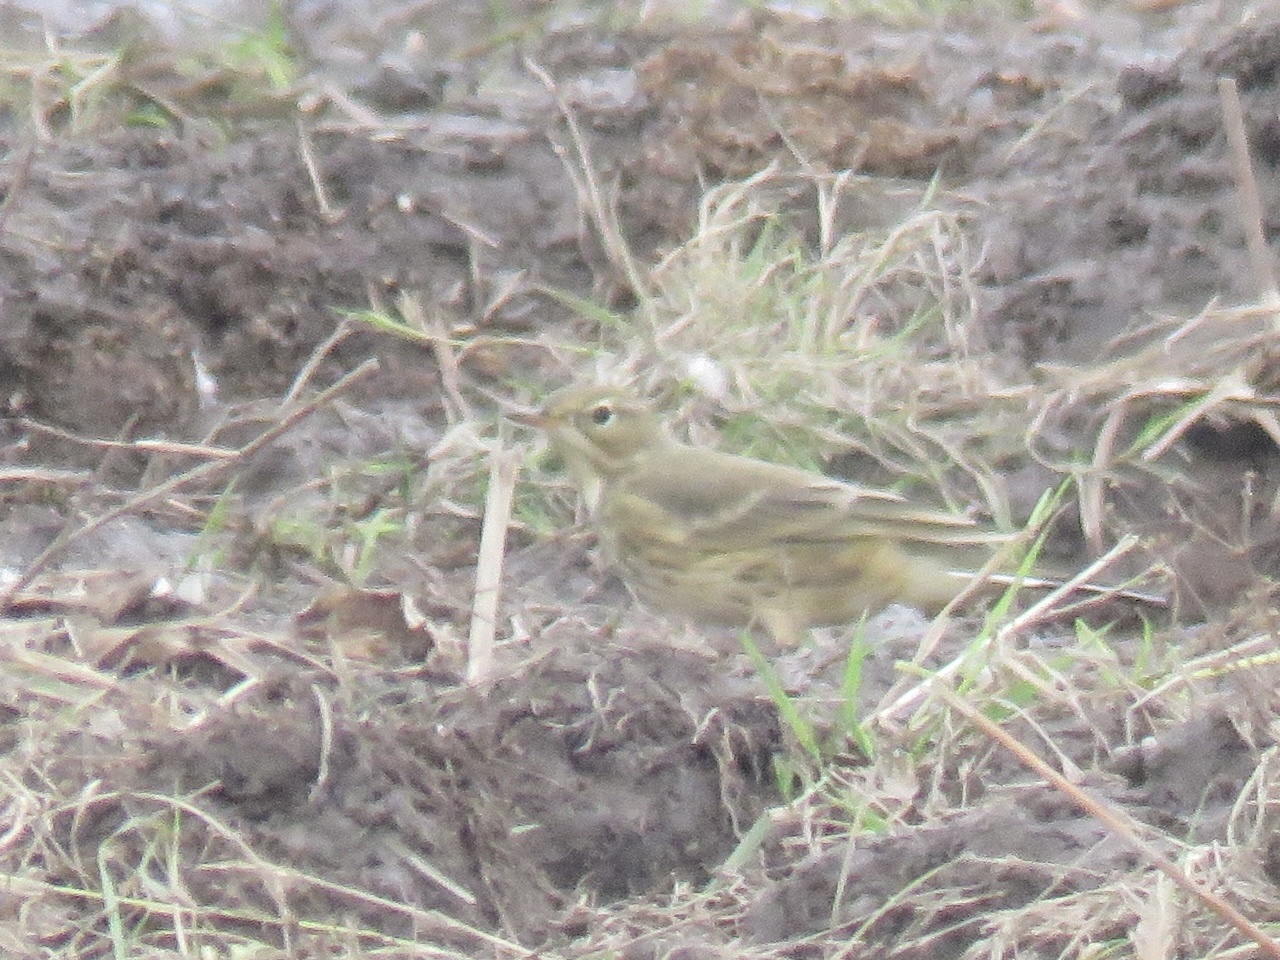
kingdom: Animalia
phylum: Chordata
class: Aves
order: Passeriformes
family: Motacillidae
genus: Anthus
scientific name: Anthus rubescens
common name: Buff-bellied pipit
